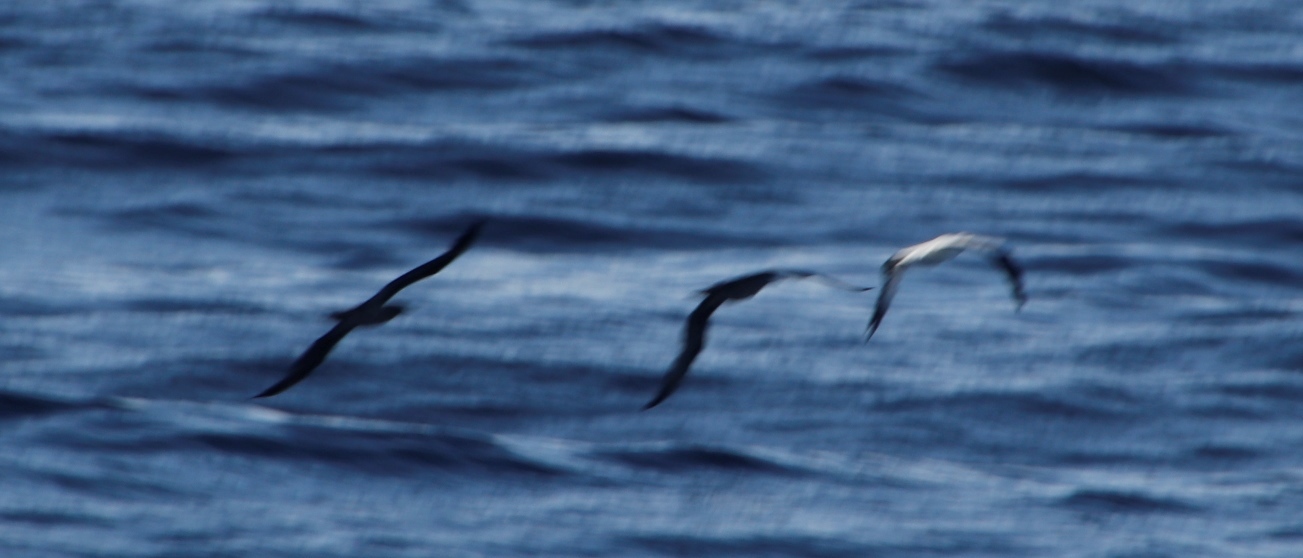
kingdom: Animalia
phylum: Chordata
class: Aves
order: Suliformes
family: Sulidae
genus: Morus
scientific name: Morus capensis
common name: Cape gannet
